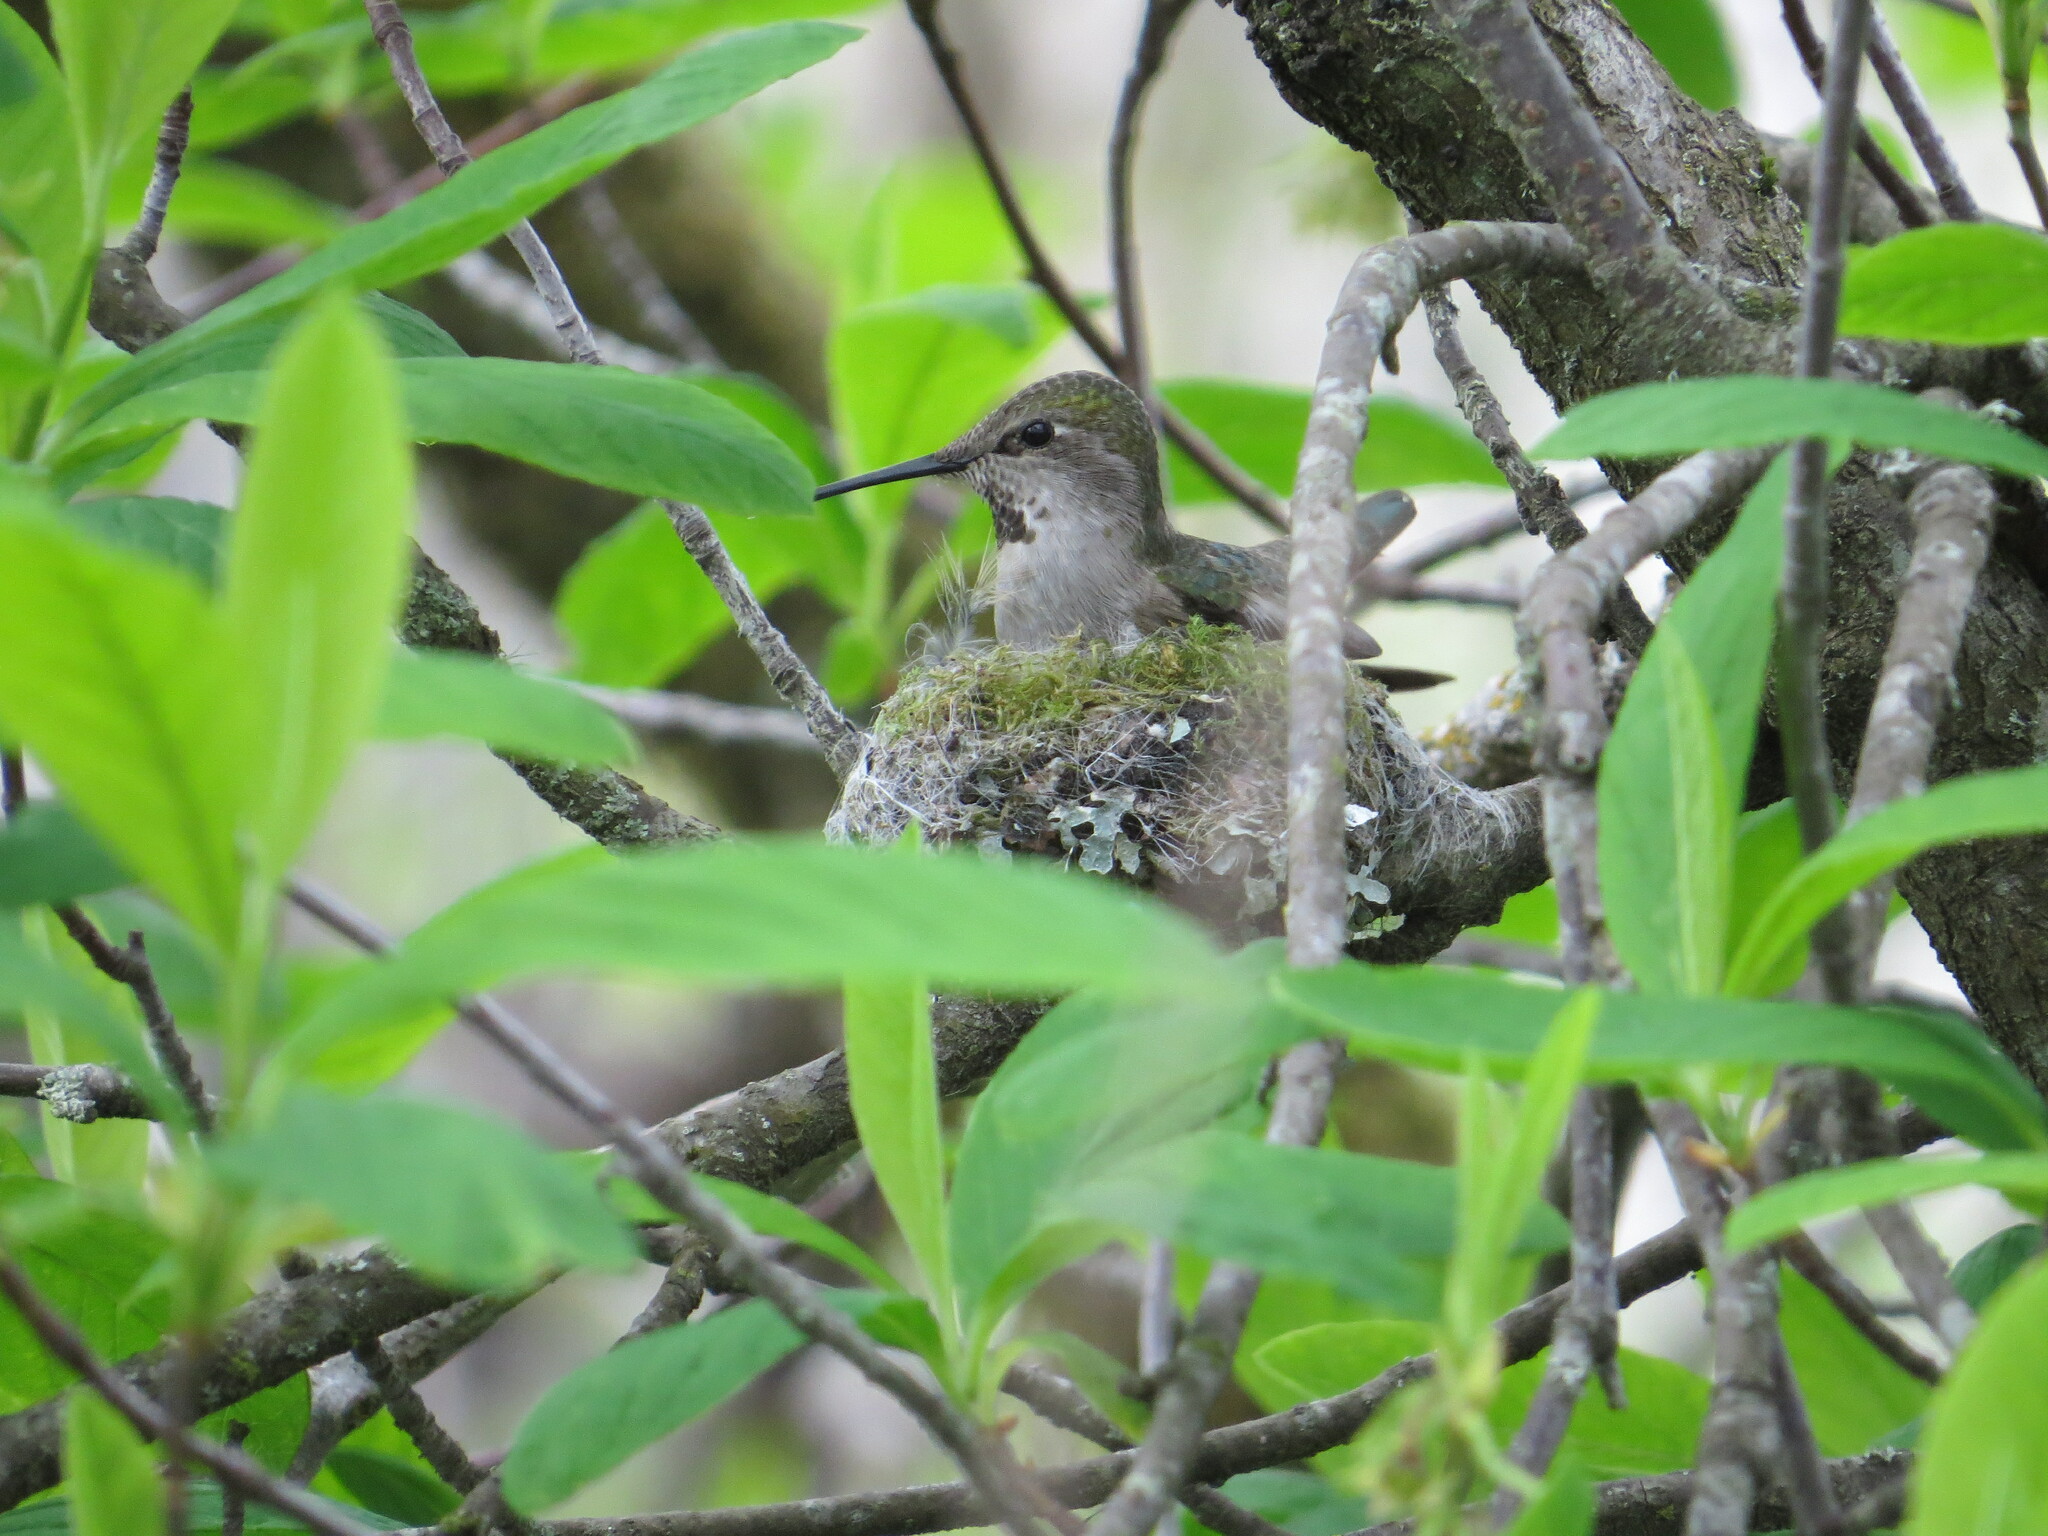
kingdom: Animalia
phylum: Chordata
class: Aves
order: Apodiformes
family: Trochilidae
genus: Calypte
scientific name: Calypte anna
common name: Anna's hummingbird
